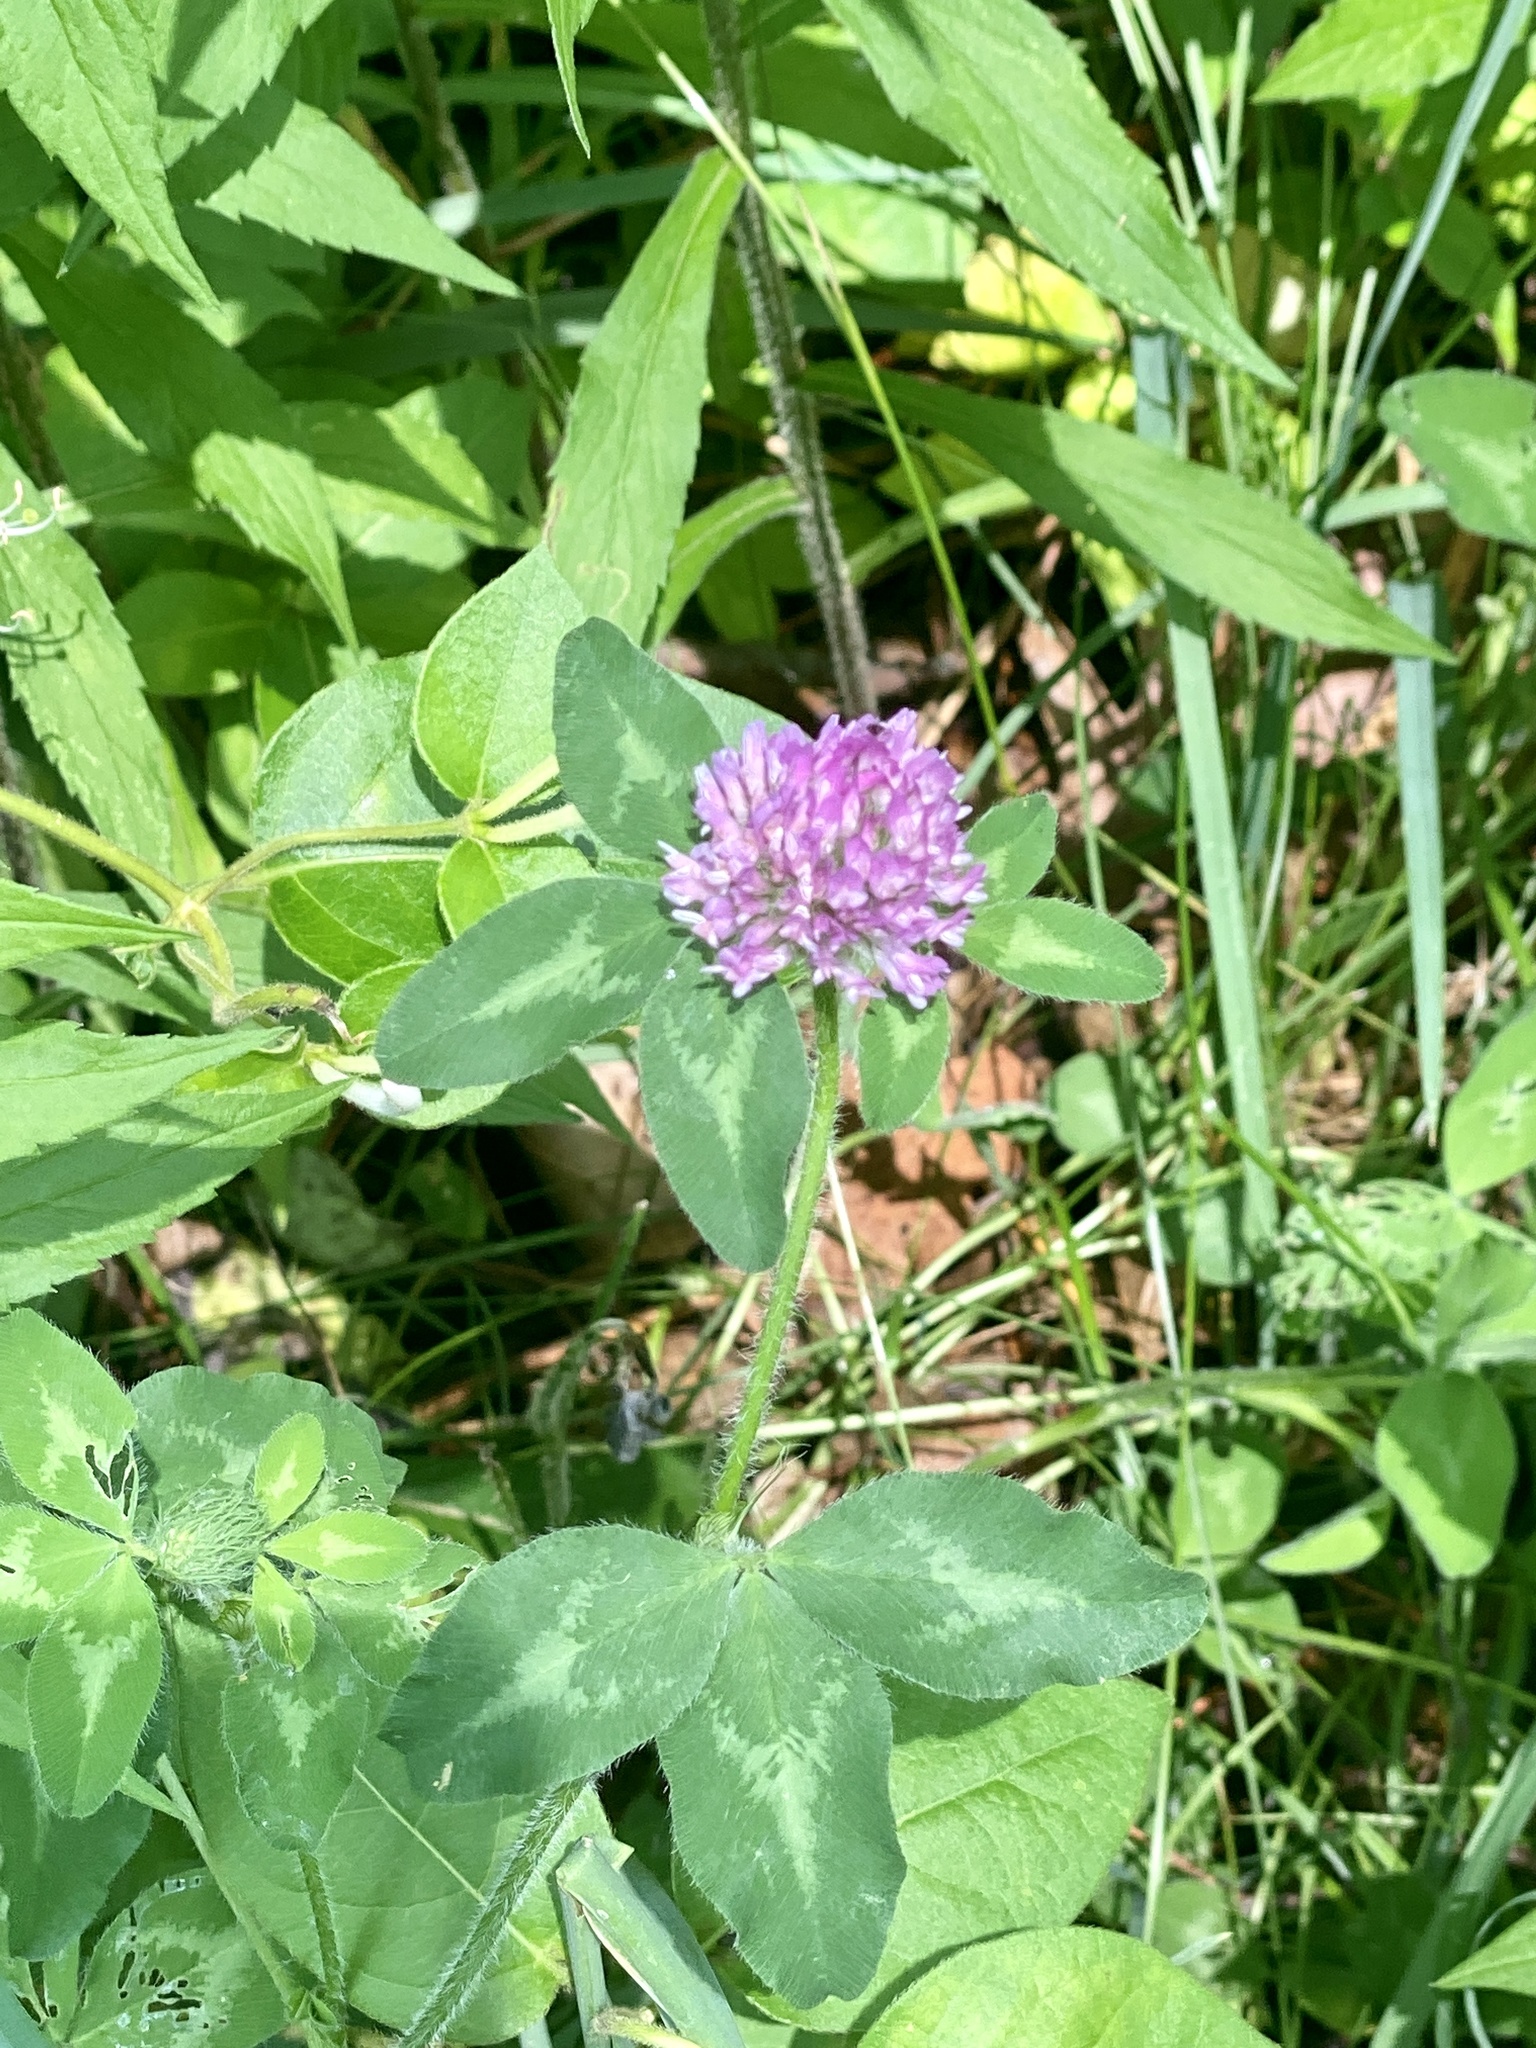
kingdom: Plantae
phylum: Tracheophyta
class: Magnoliopsida
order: Fabales
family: Fabaceae
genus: Trifolium
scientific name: Trifolium pratense
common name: Red clover
